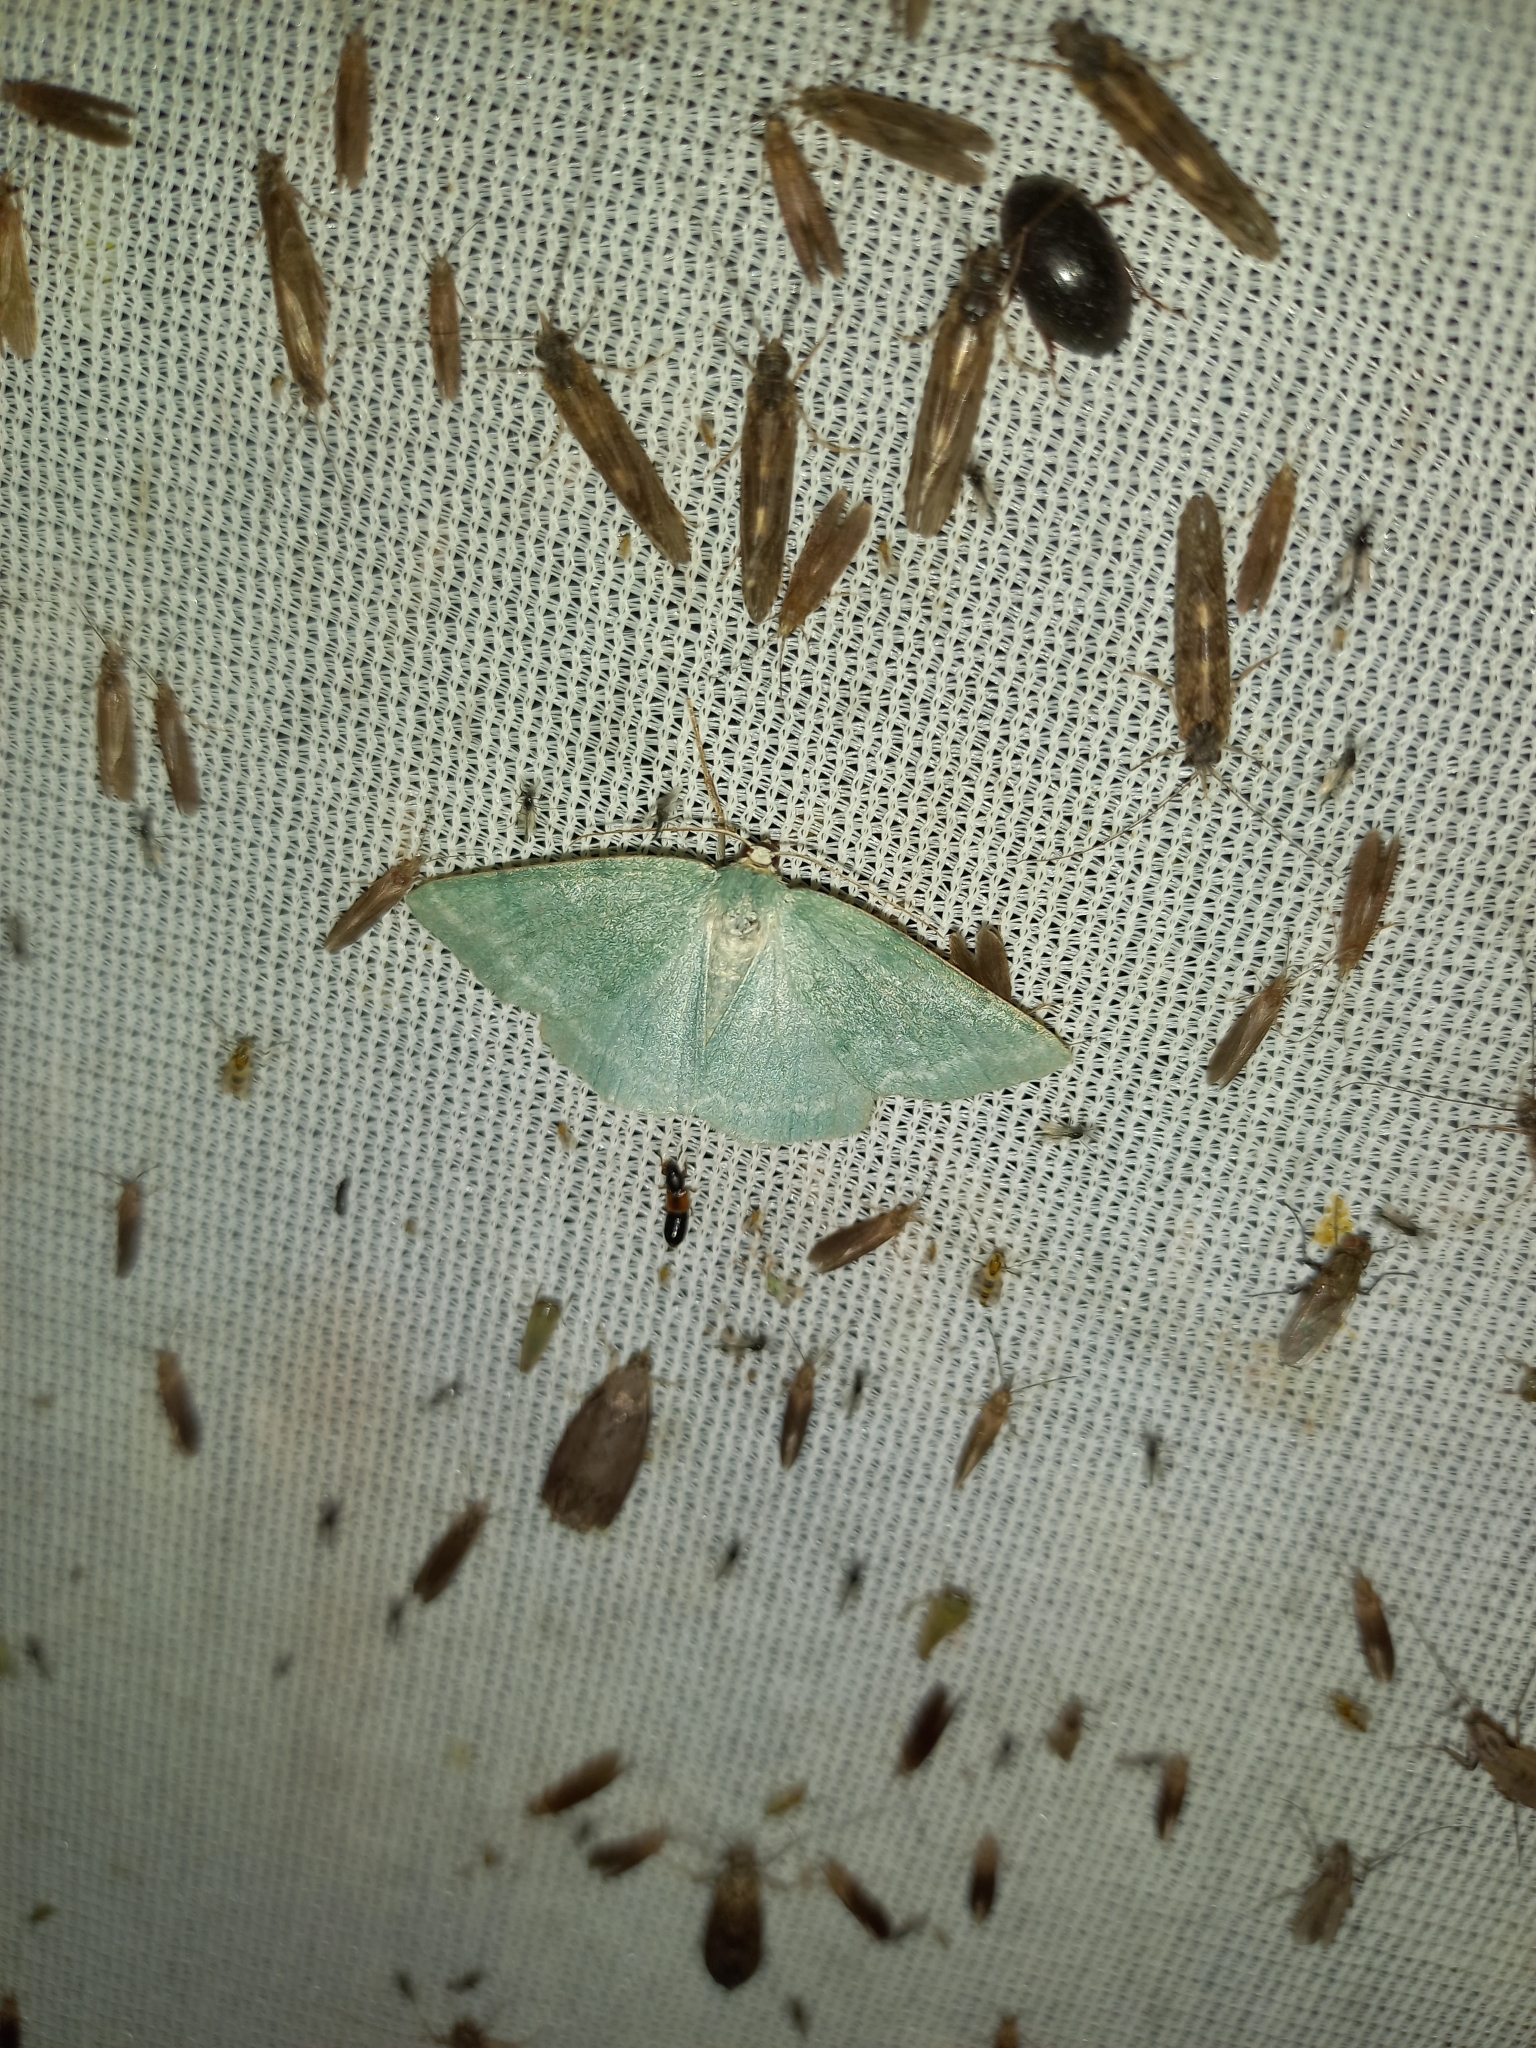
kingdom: Animalia
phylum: Arthropoda
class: Insecta
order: Lepidoptera
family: Geometridae
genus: Pseudoterpna
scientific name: Pseudoterpna pruinata
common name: Grass emerald
